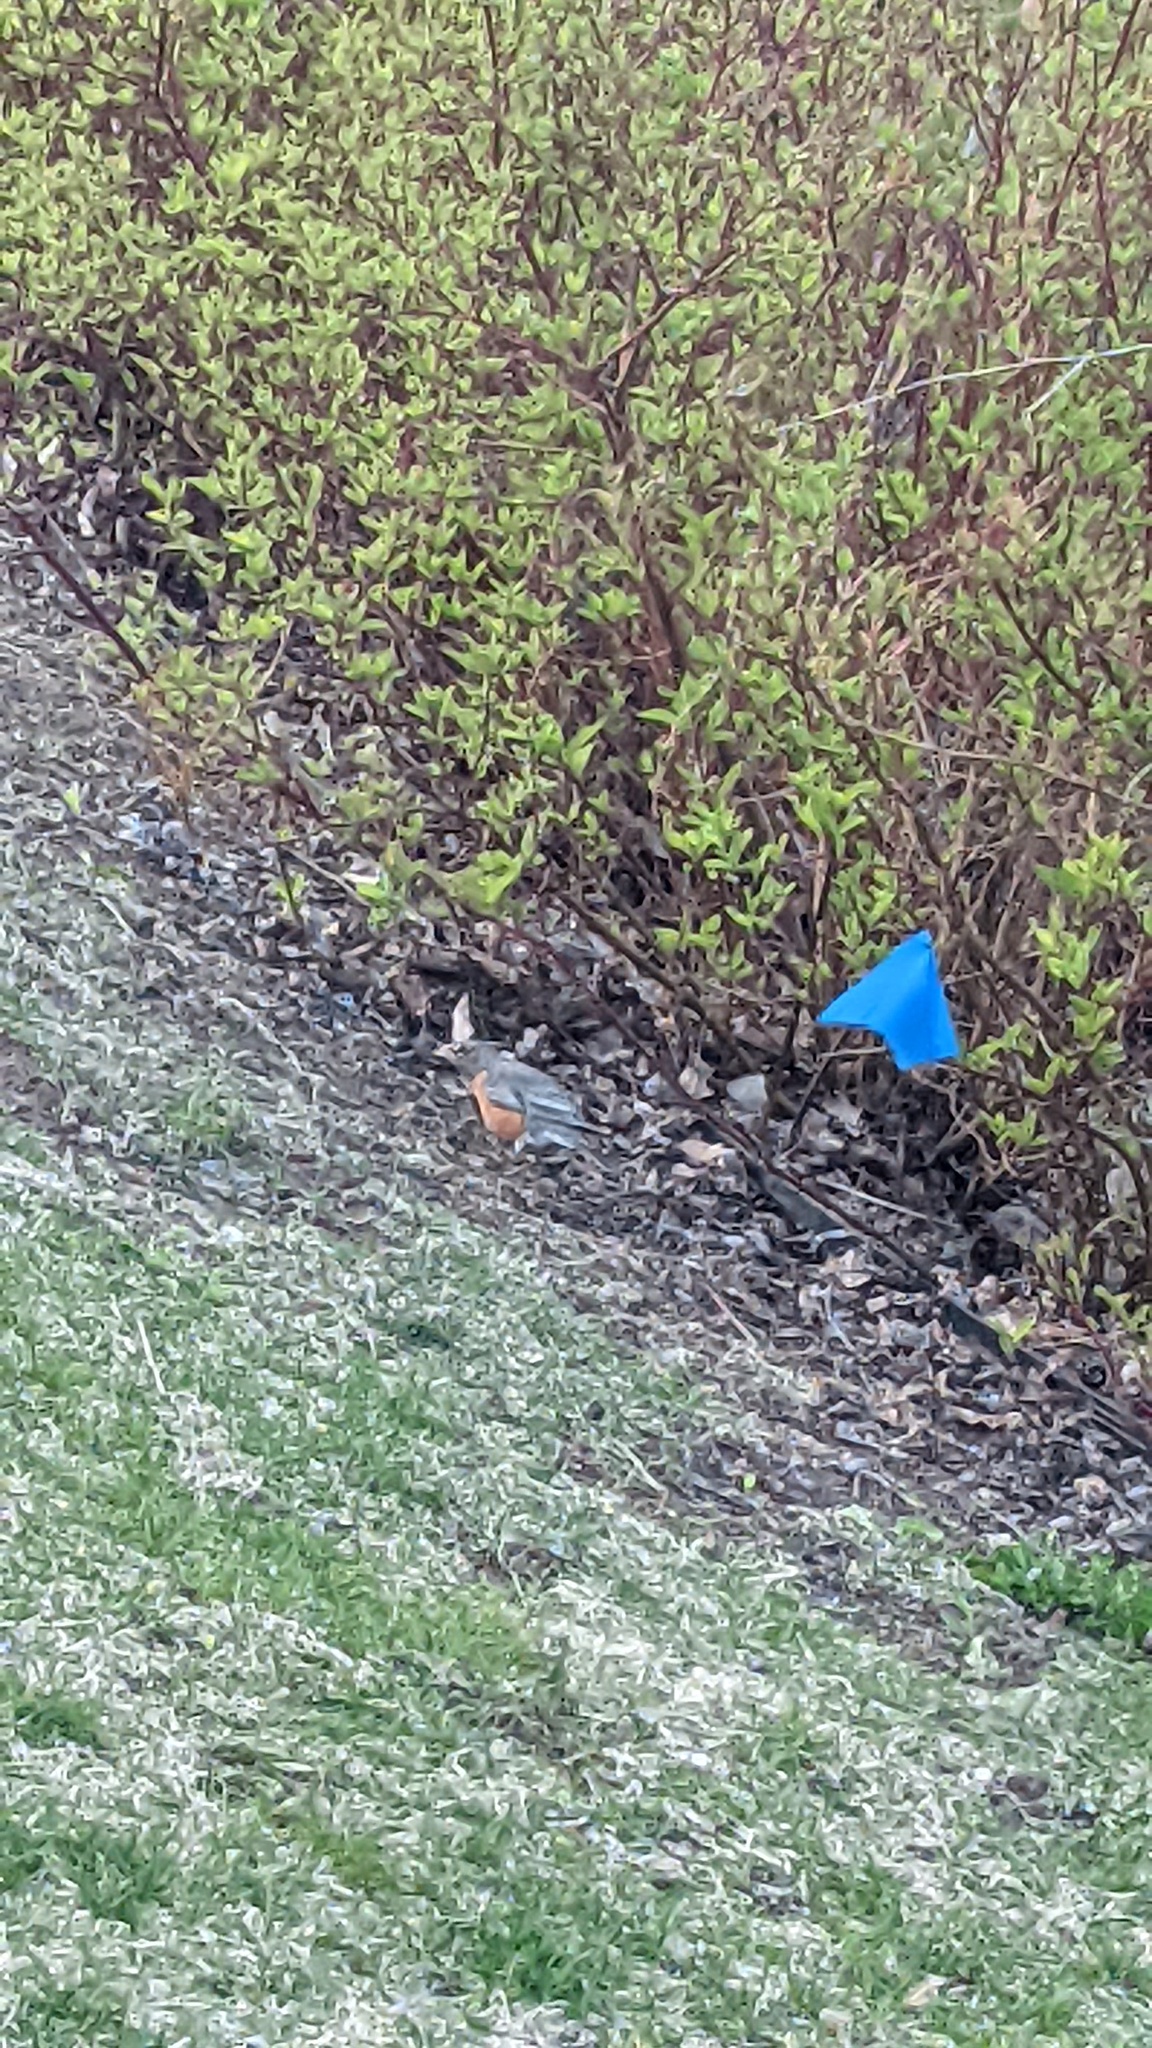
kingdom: Animalia
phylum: Chordata
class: Aves
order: Passeriformes
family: Turdidae
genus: Turdus
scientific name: Turdus migratorius
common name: American robin
